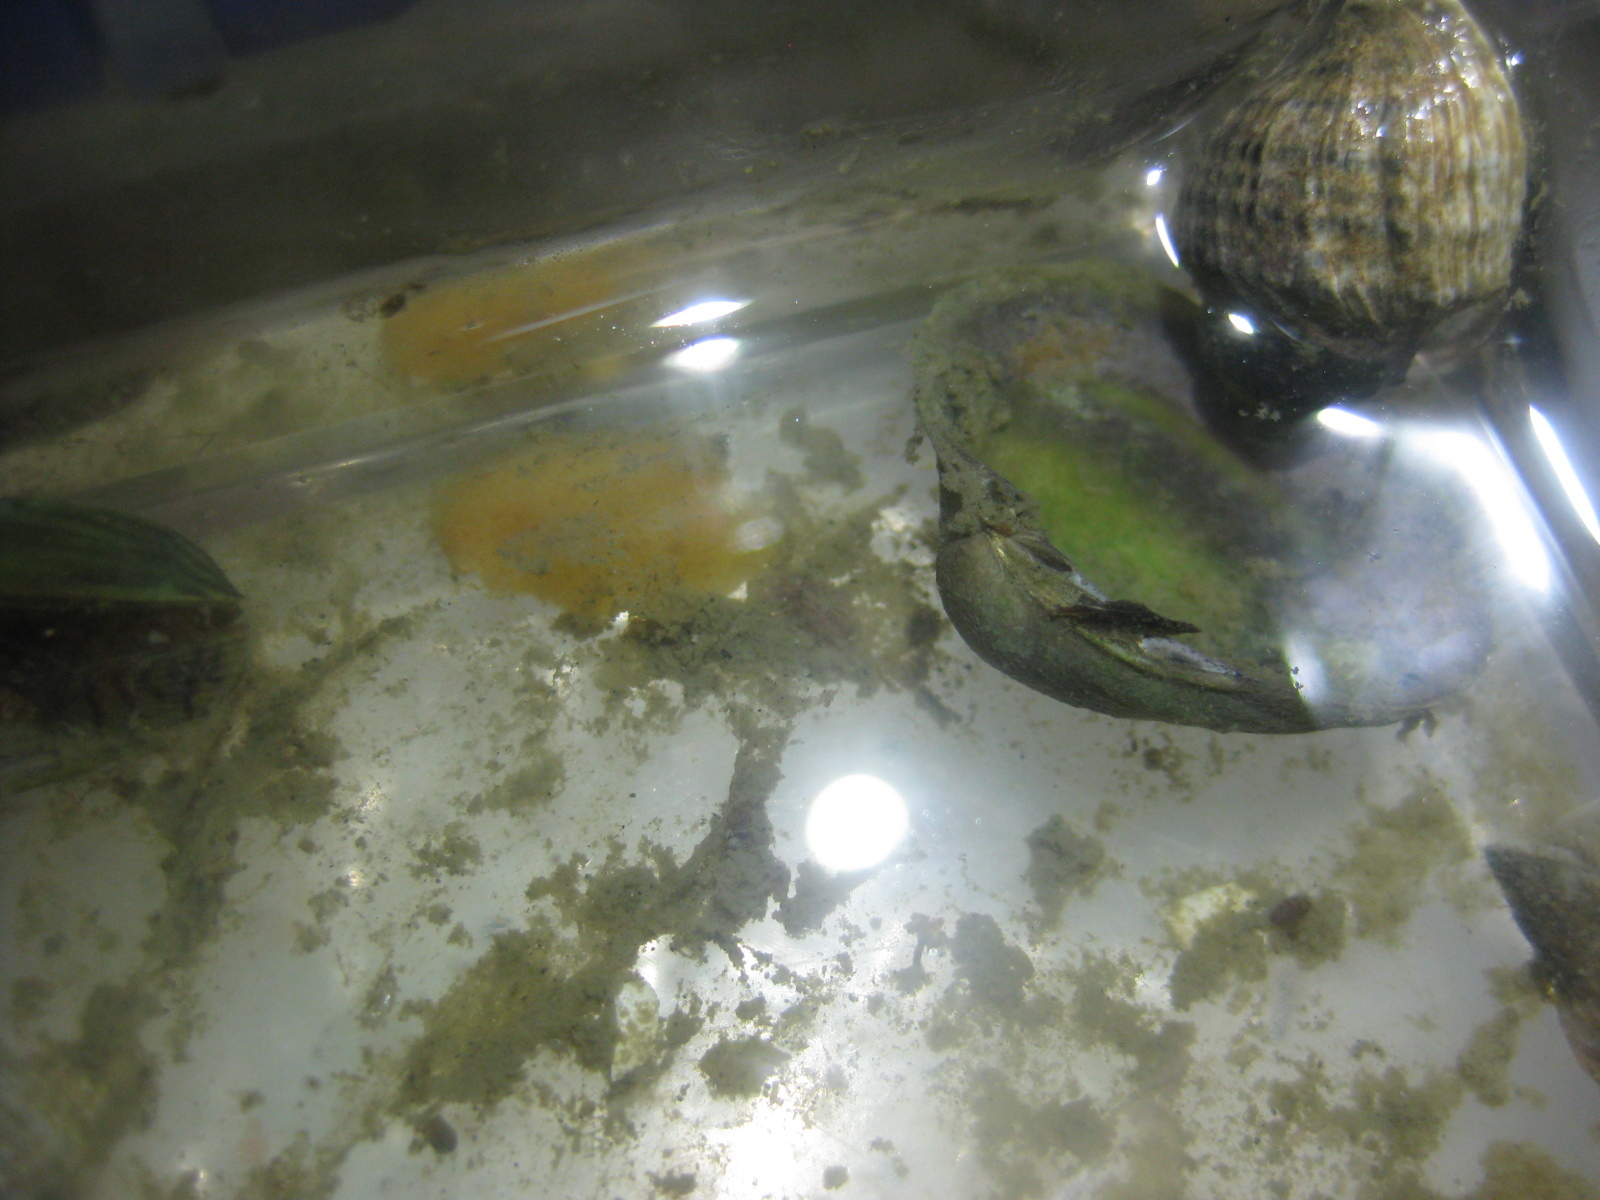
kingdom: Animalia
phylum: Mollusca
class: Gastropoda
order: Nudibranchia
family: Dendrodorididae
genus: Dendrodoris
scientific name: Dendrodoris citrina
